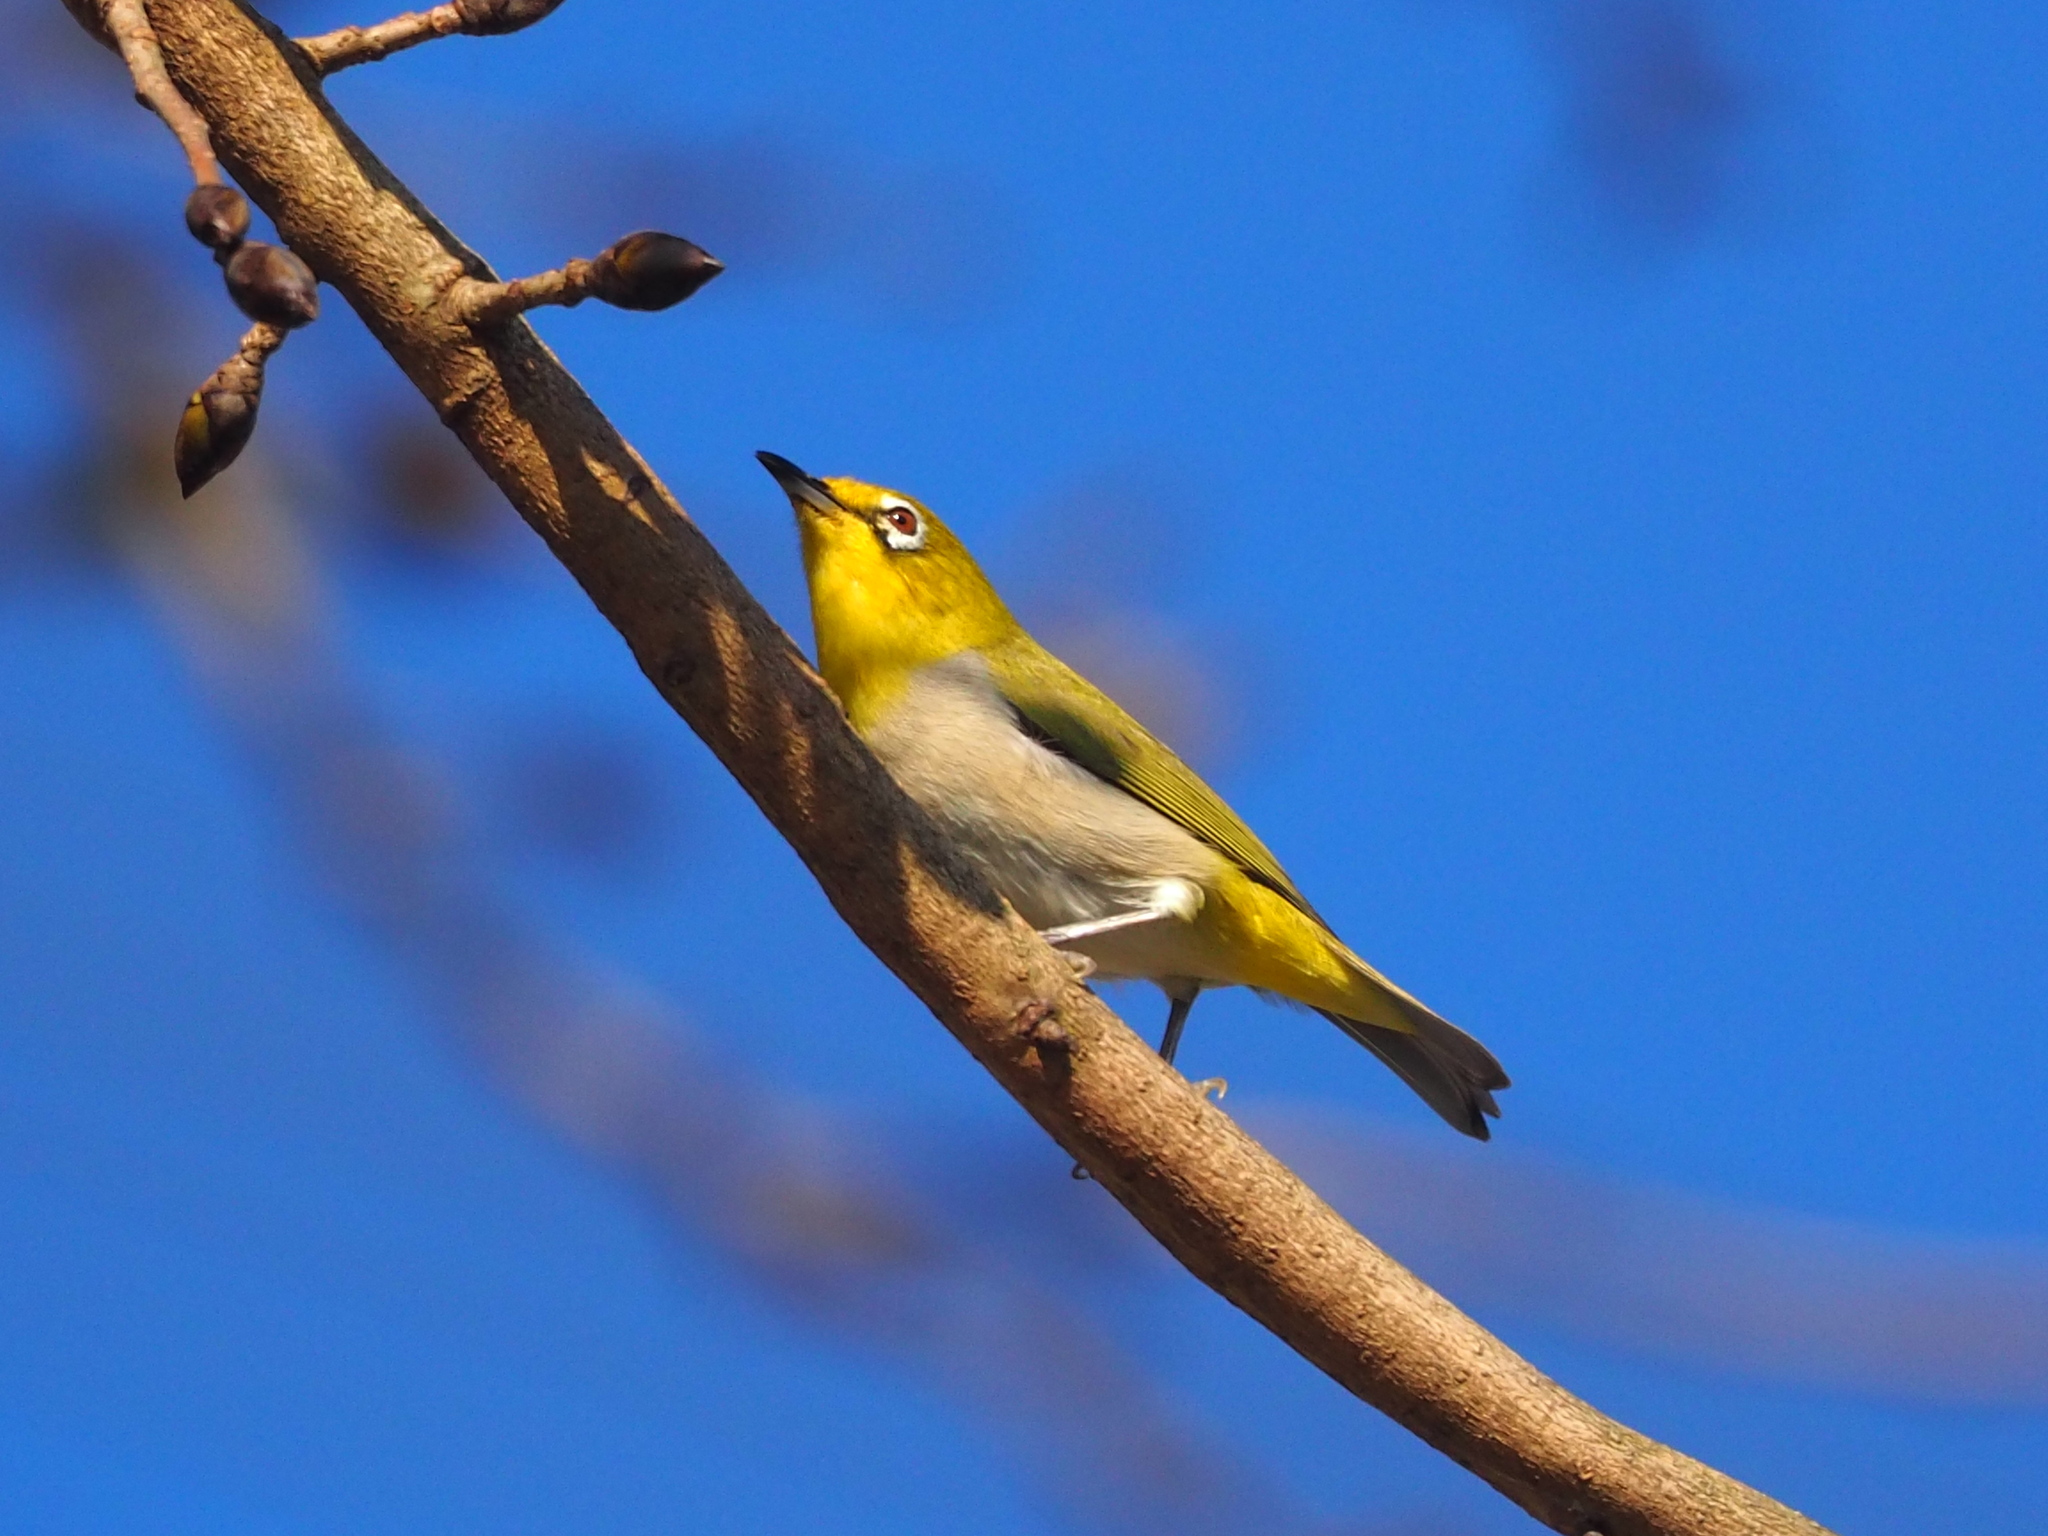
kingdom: Animalia
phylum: Chordata
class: Aves
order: Passeriformes
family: Zosteropidae
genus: Zosterops
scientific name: Zosterops simplex
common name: Swinhoe's white-eye
